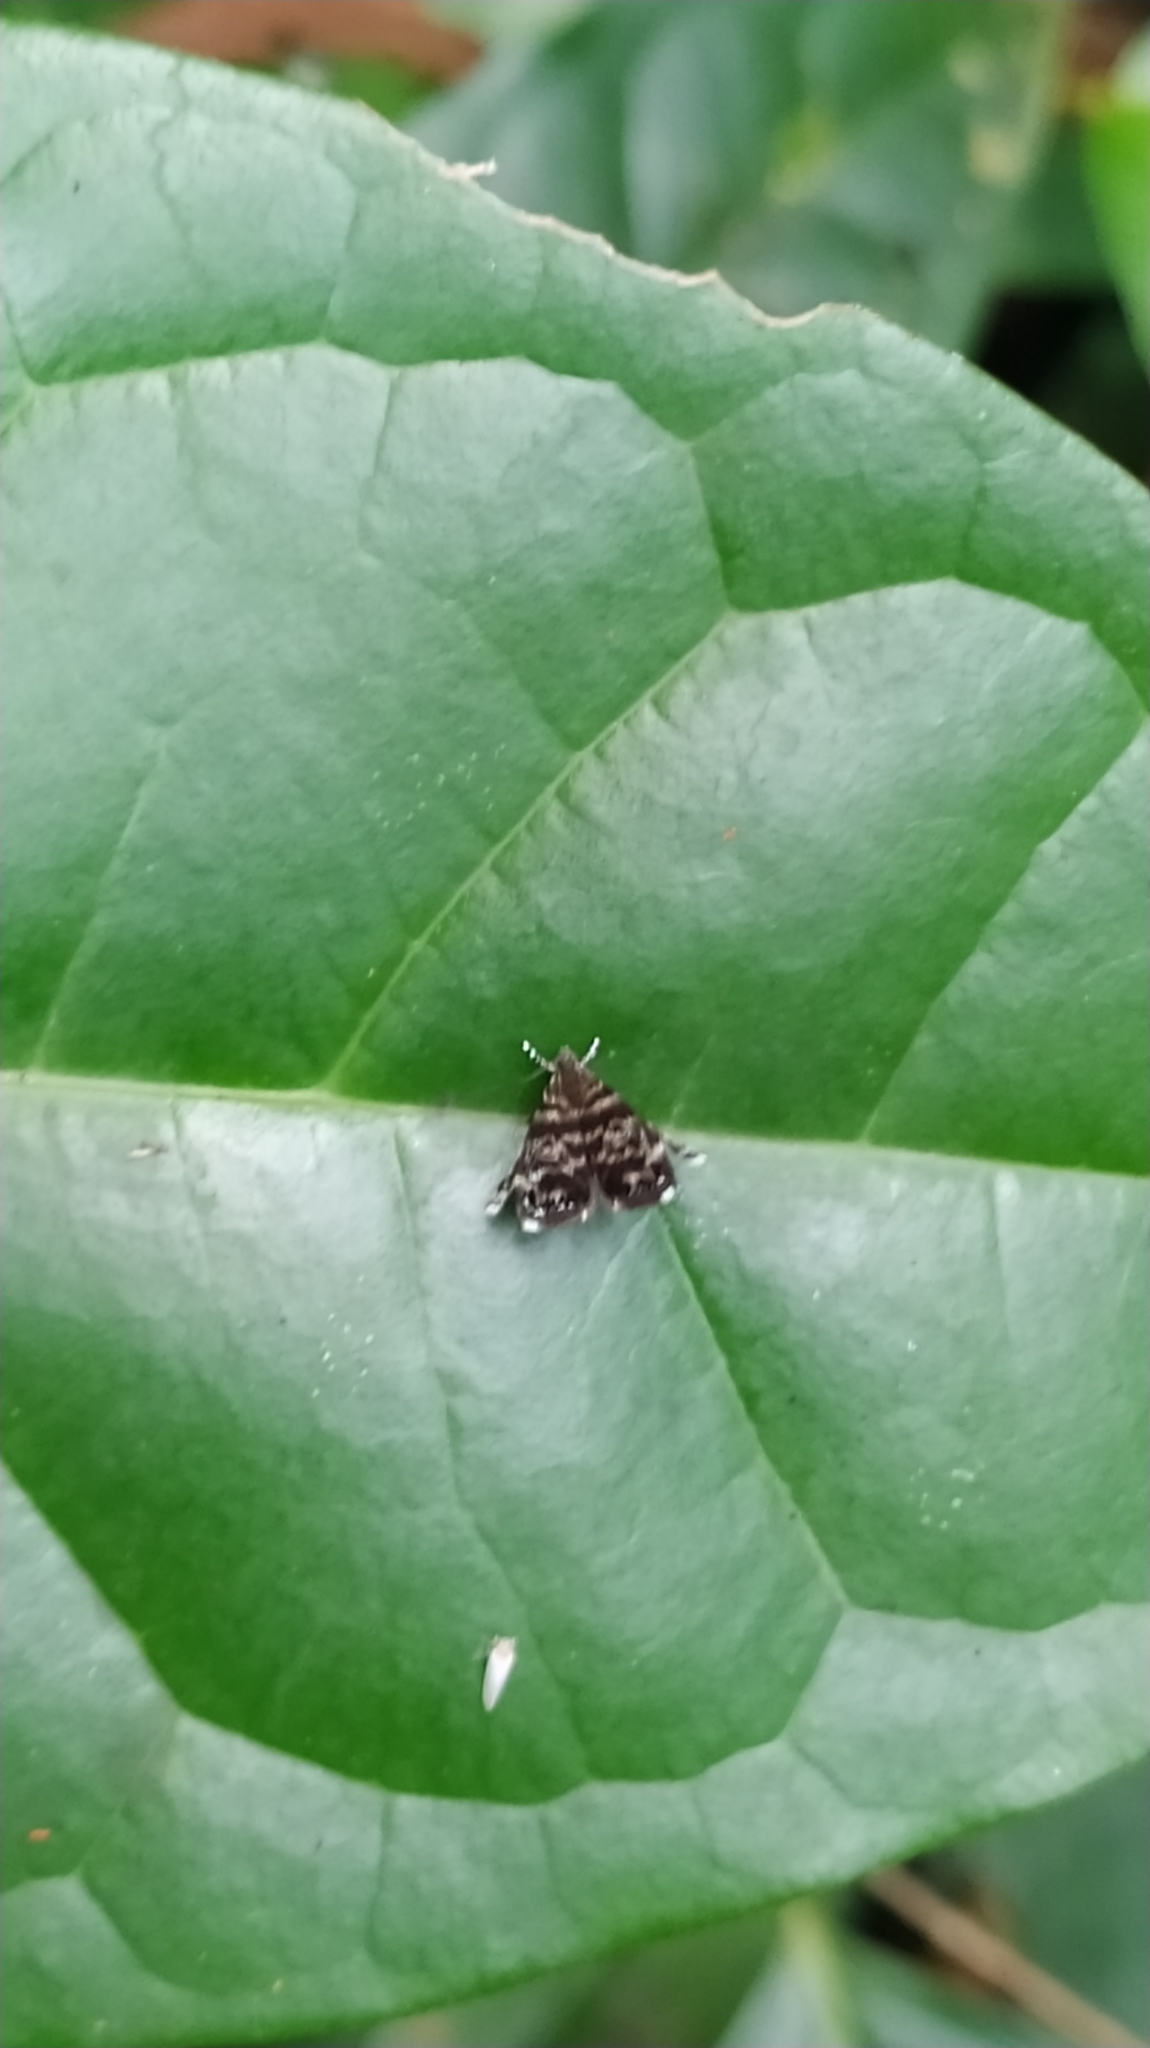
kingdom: Animalia
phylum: Arthropoda
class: Insecta
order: Lepidoptera
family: Choreutidae
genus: Brenthia
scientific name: Brenthia
